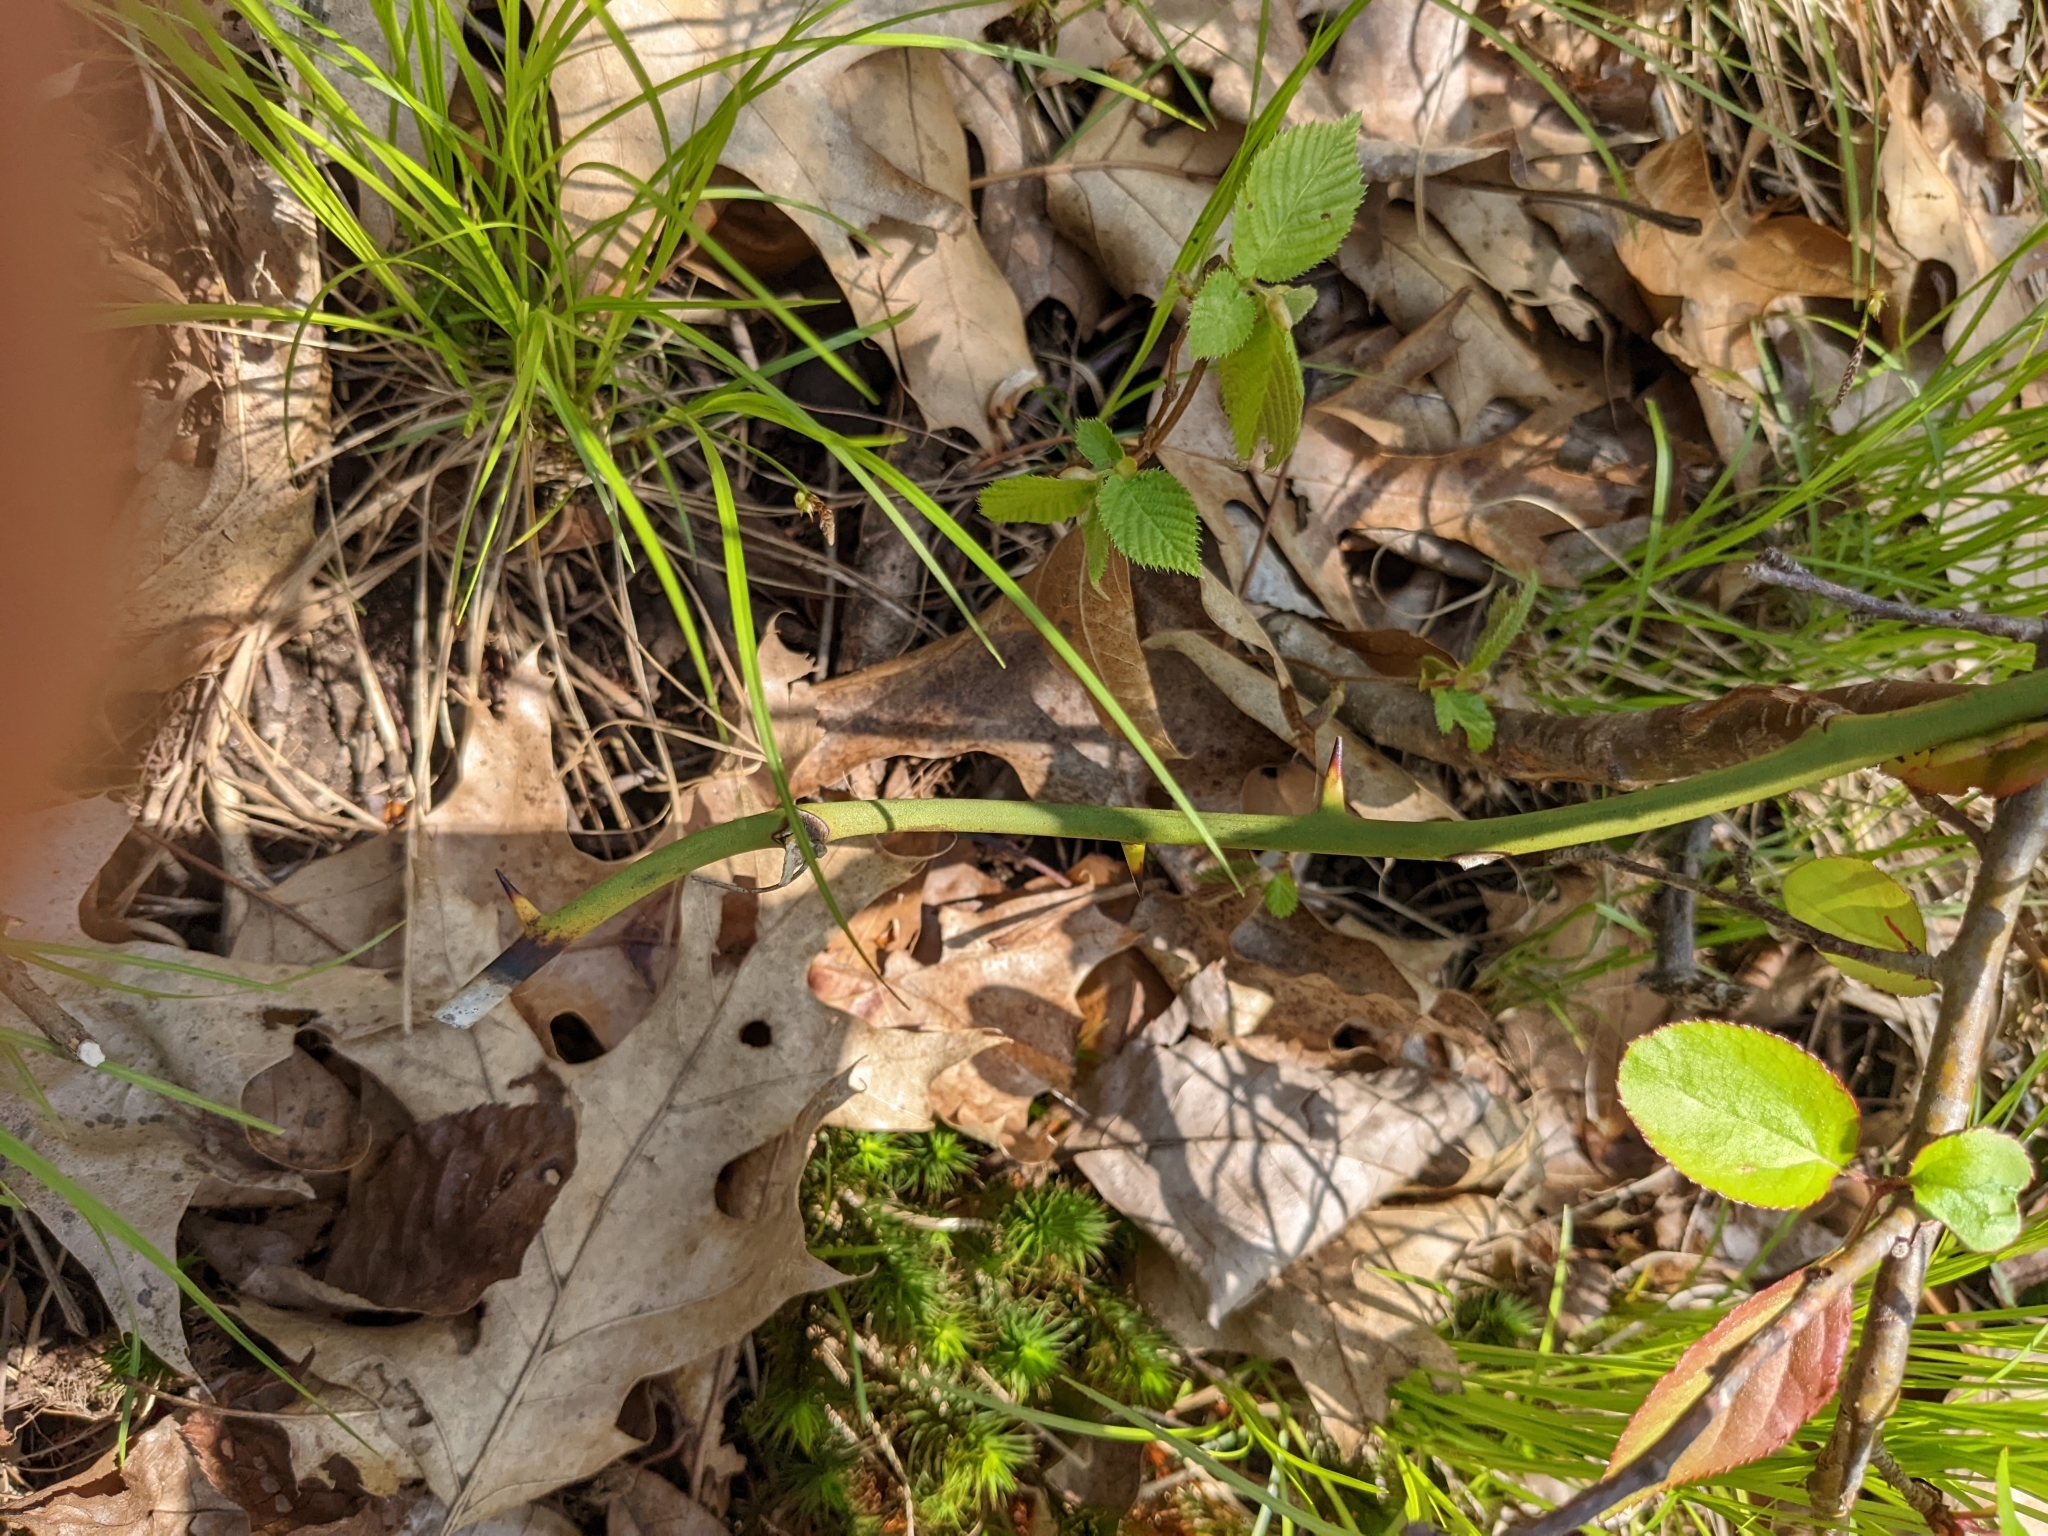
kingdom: Plantae
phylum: Tracheophyta
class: Liliopsida
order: Liliales
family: Smilacaceae
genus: Smilax
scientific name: Smilax rotundifolia
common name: Bullbriar
